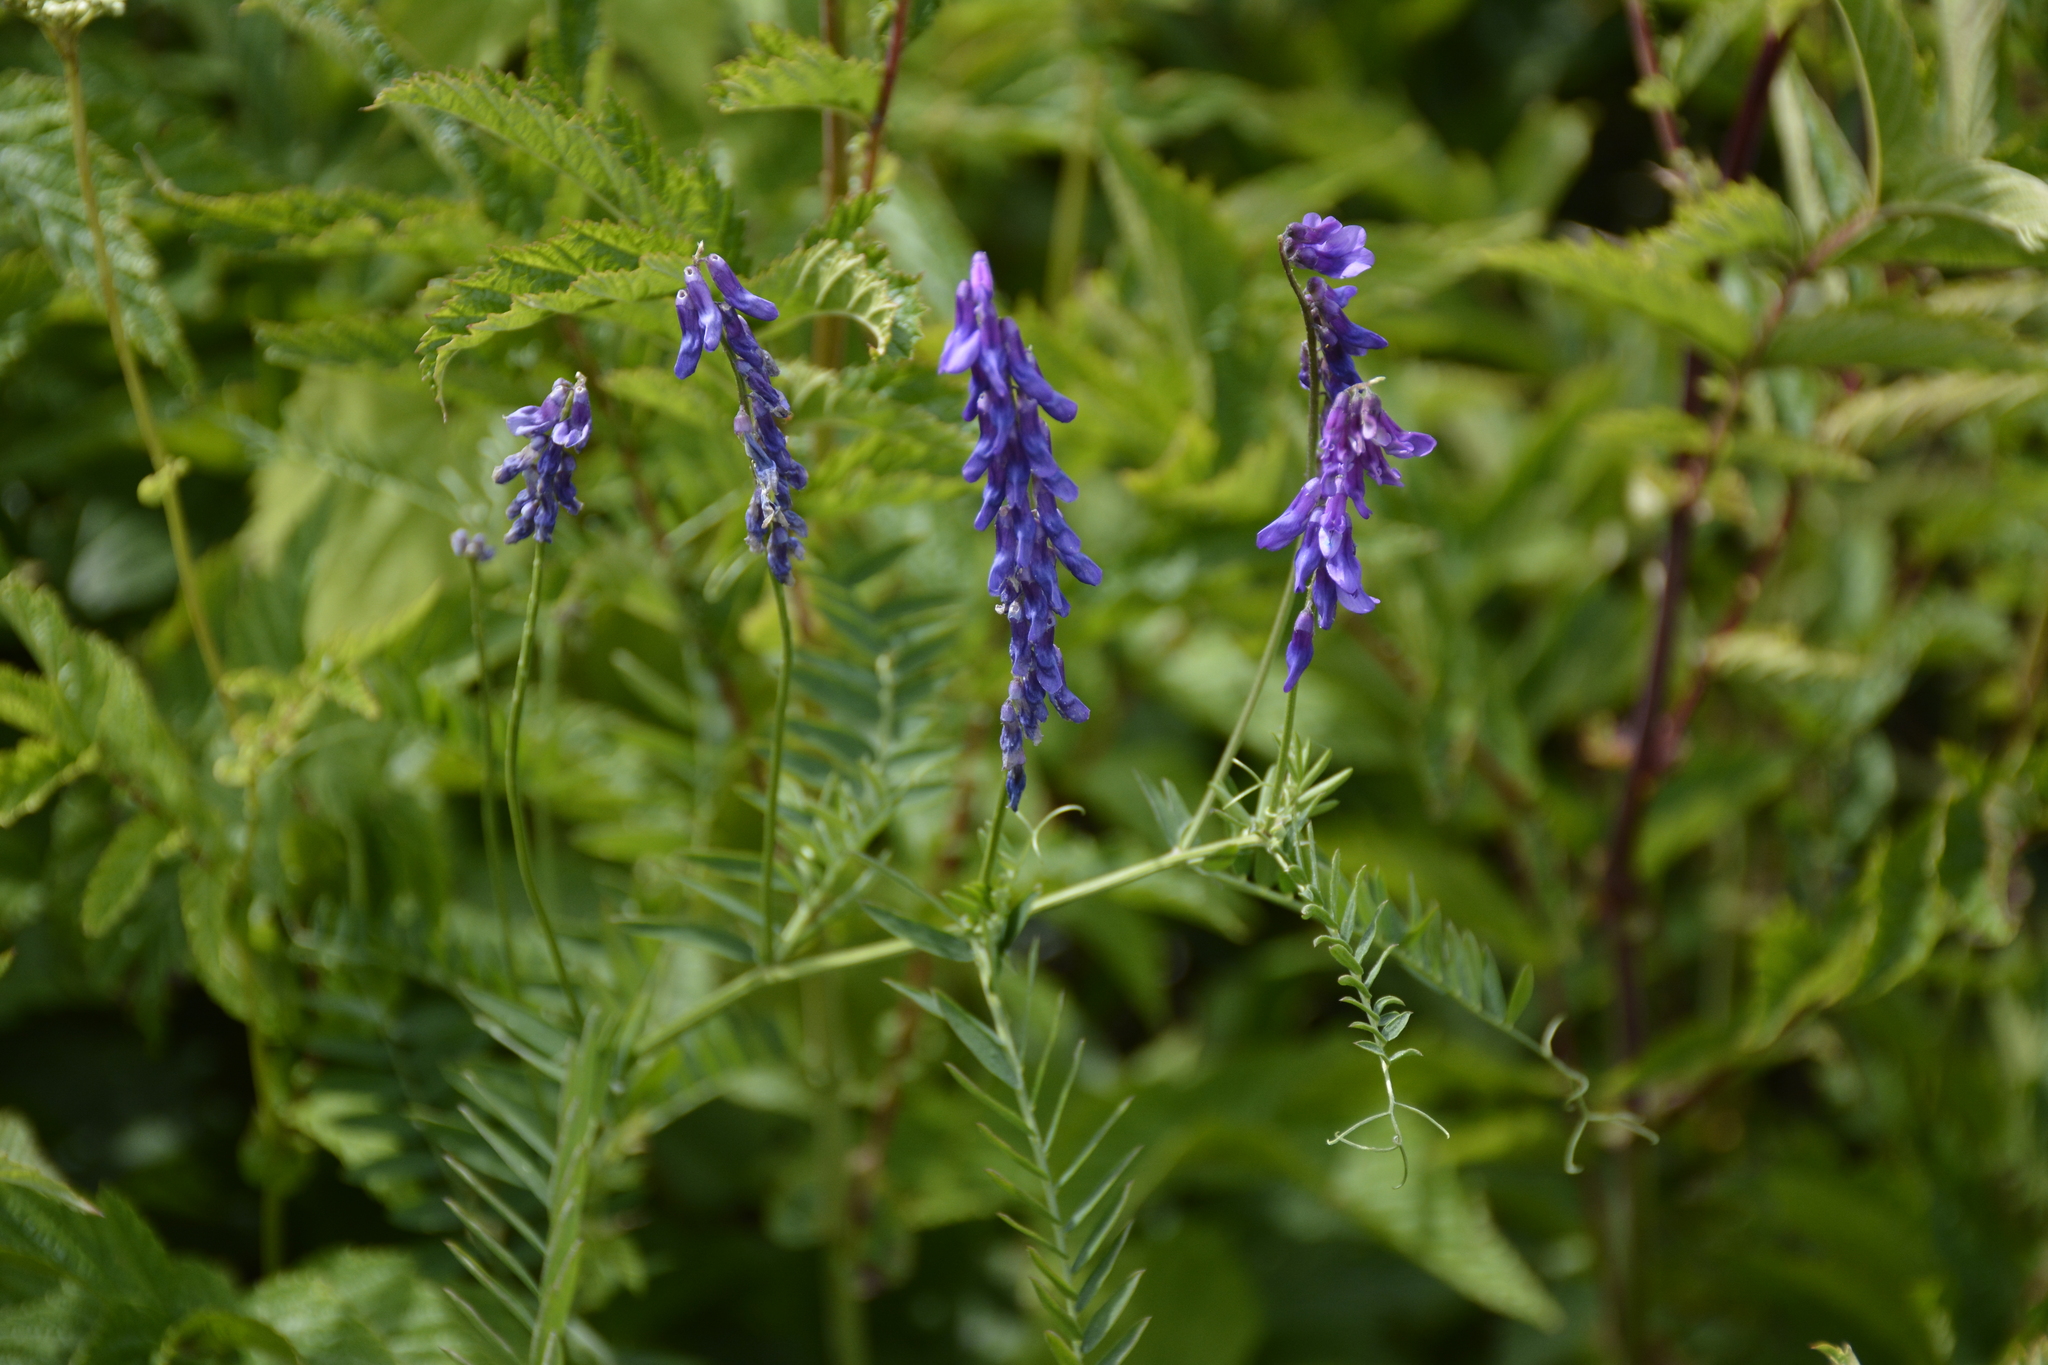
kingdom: Plantae
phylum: Tracheophyta
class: Magnoliopsida
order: Fabales
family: Fabaceae
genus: Vicia
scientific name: Vicia tenuifolia
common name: Fine-leaved vetch
